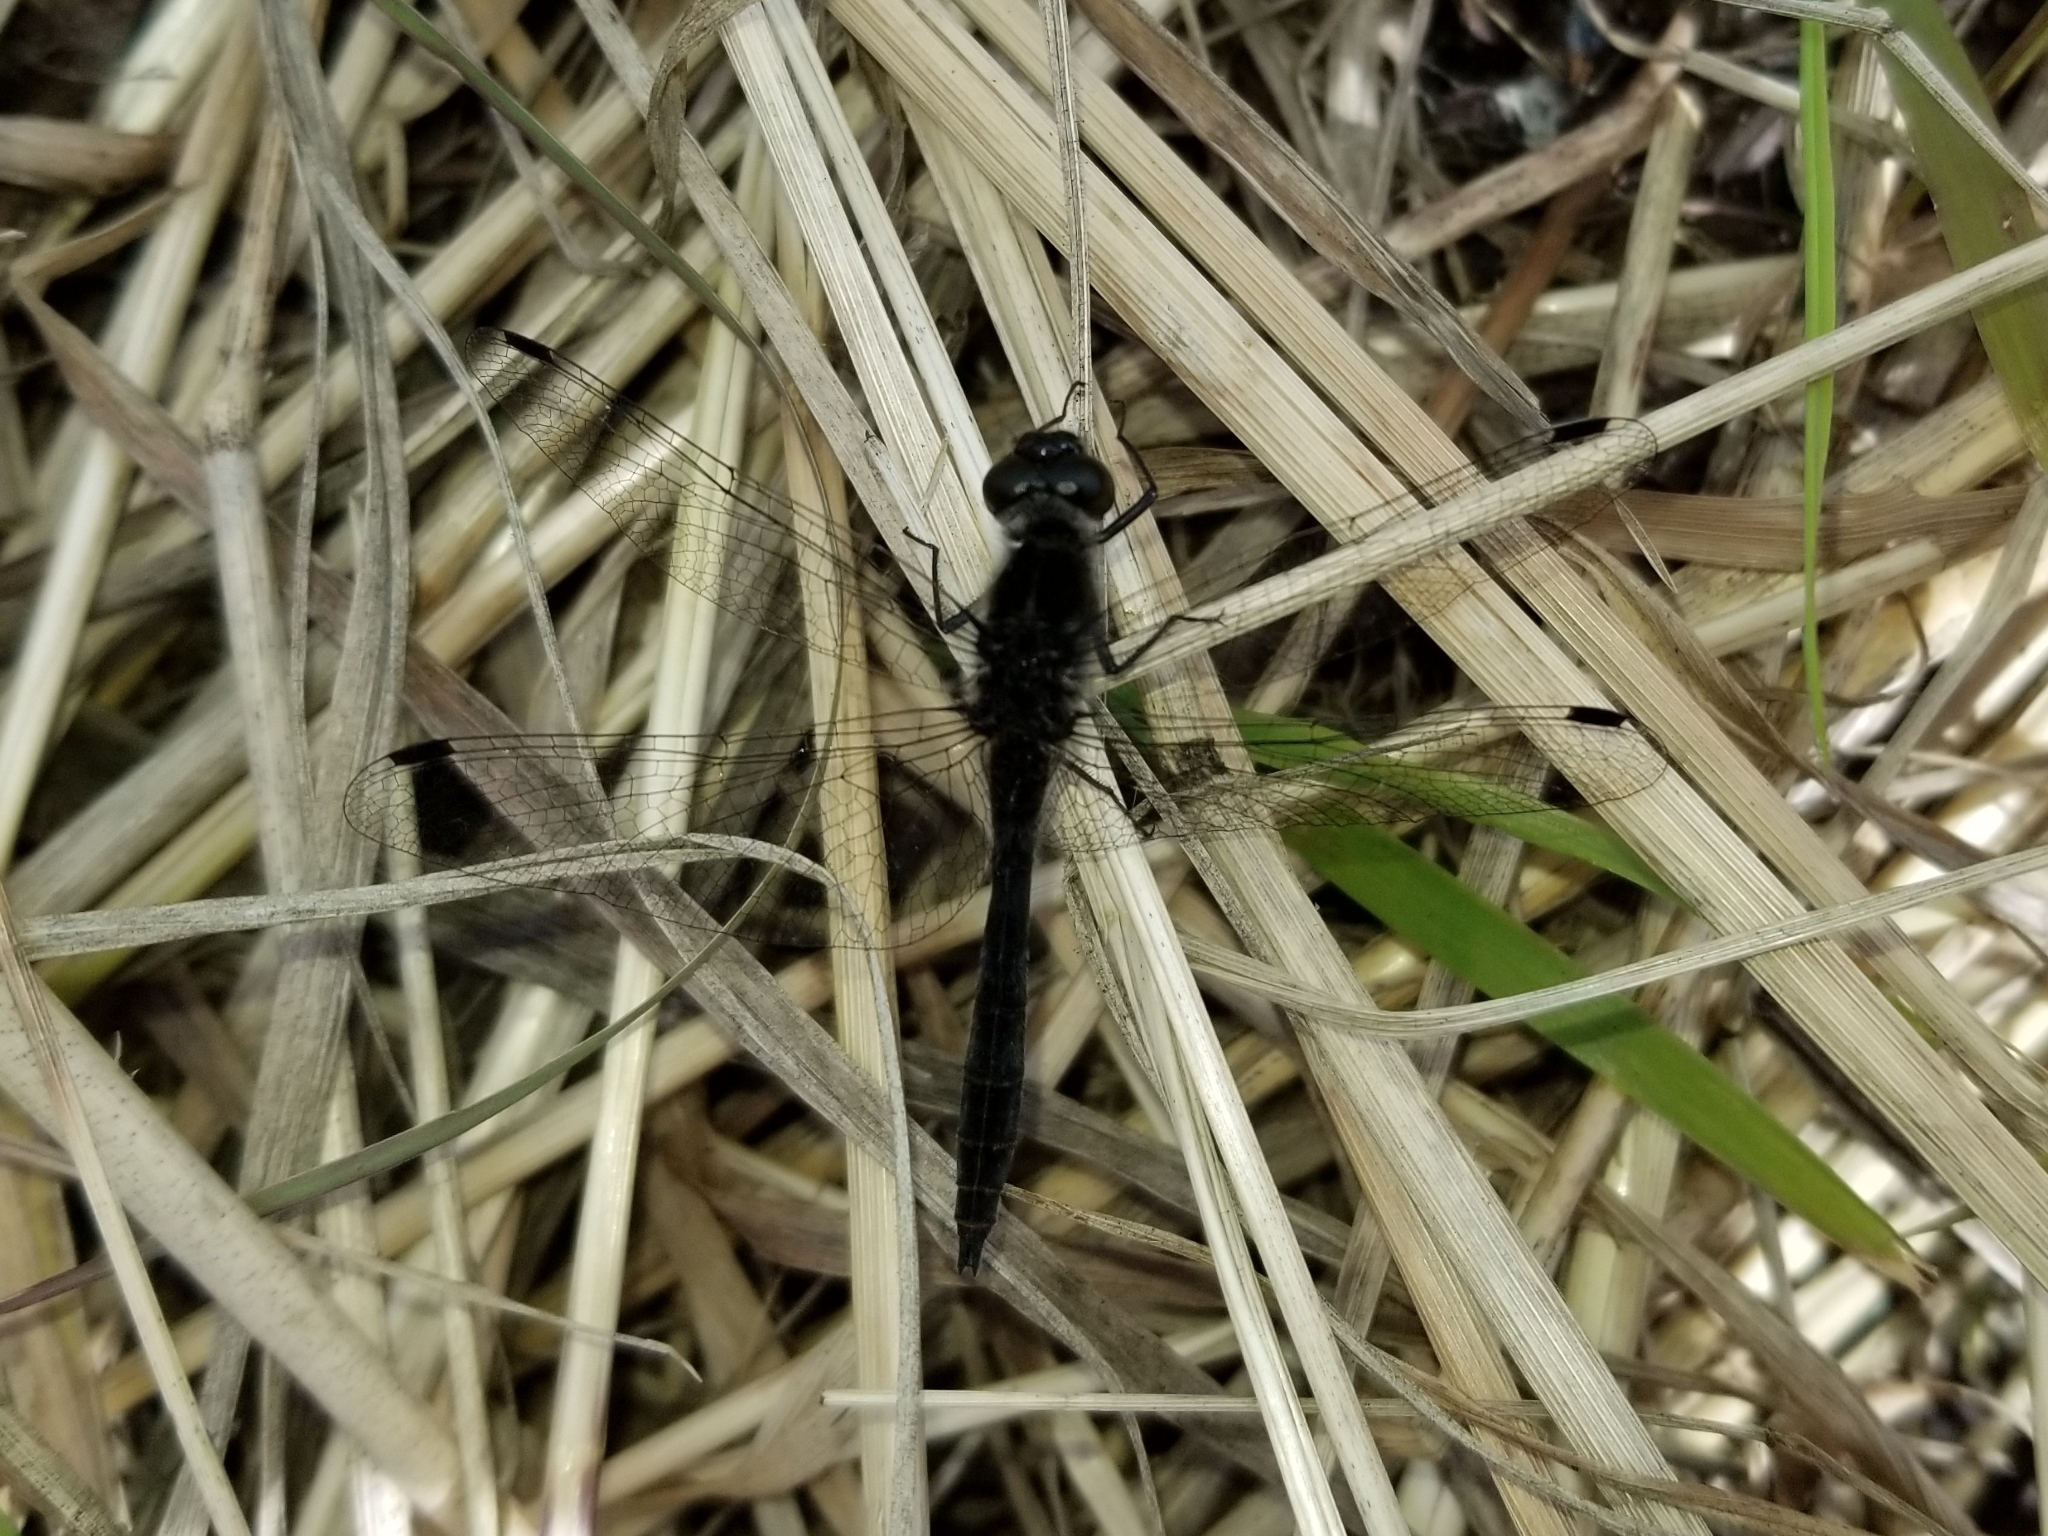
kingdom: Animalia
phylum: Arthropoda
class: Insecta
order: Odonata
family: Libellulidae
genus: Sympetrum
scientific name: Sympetrum danae
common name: Black darter
